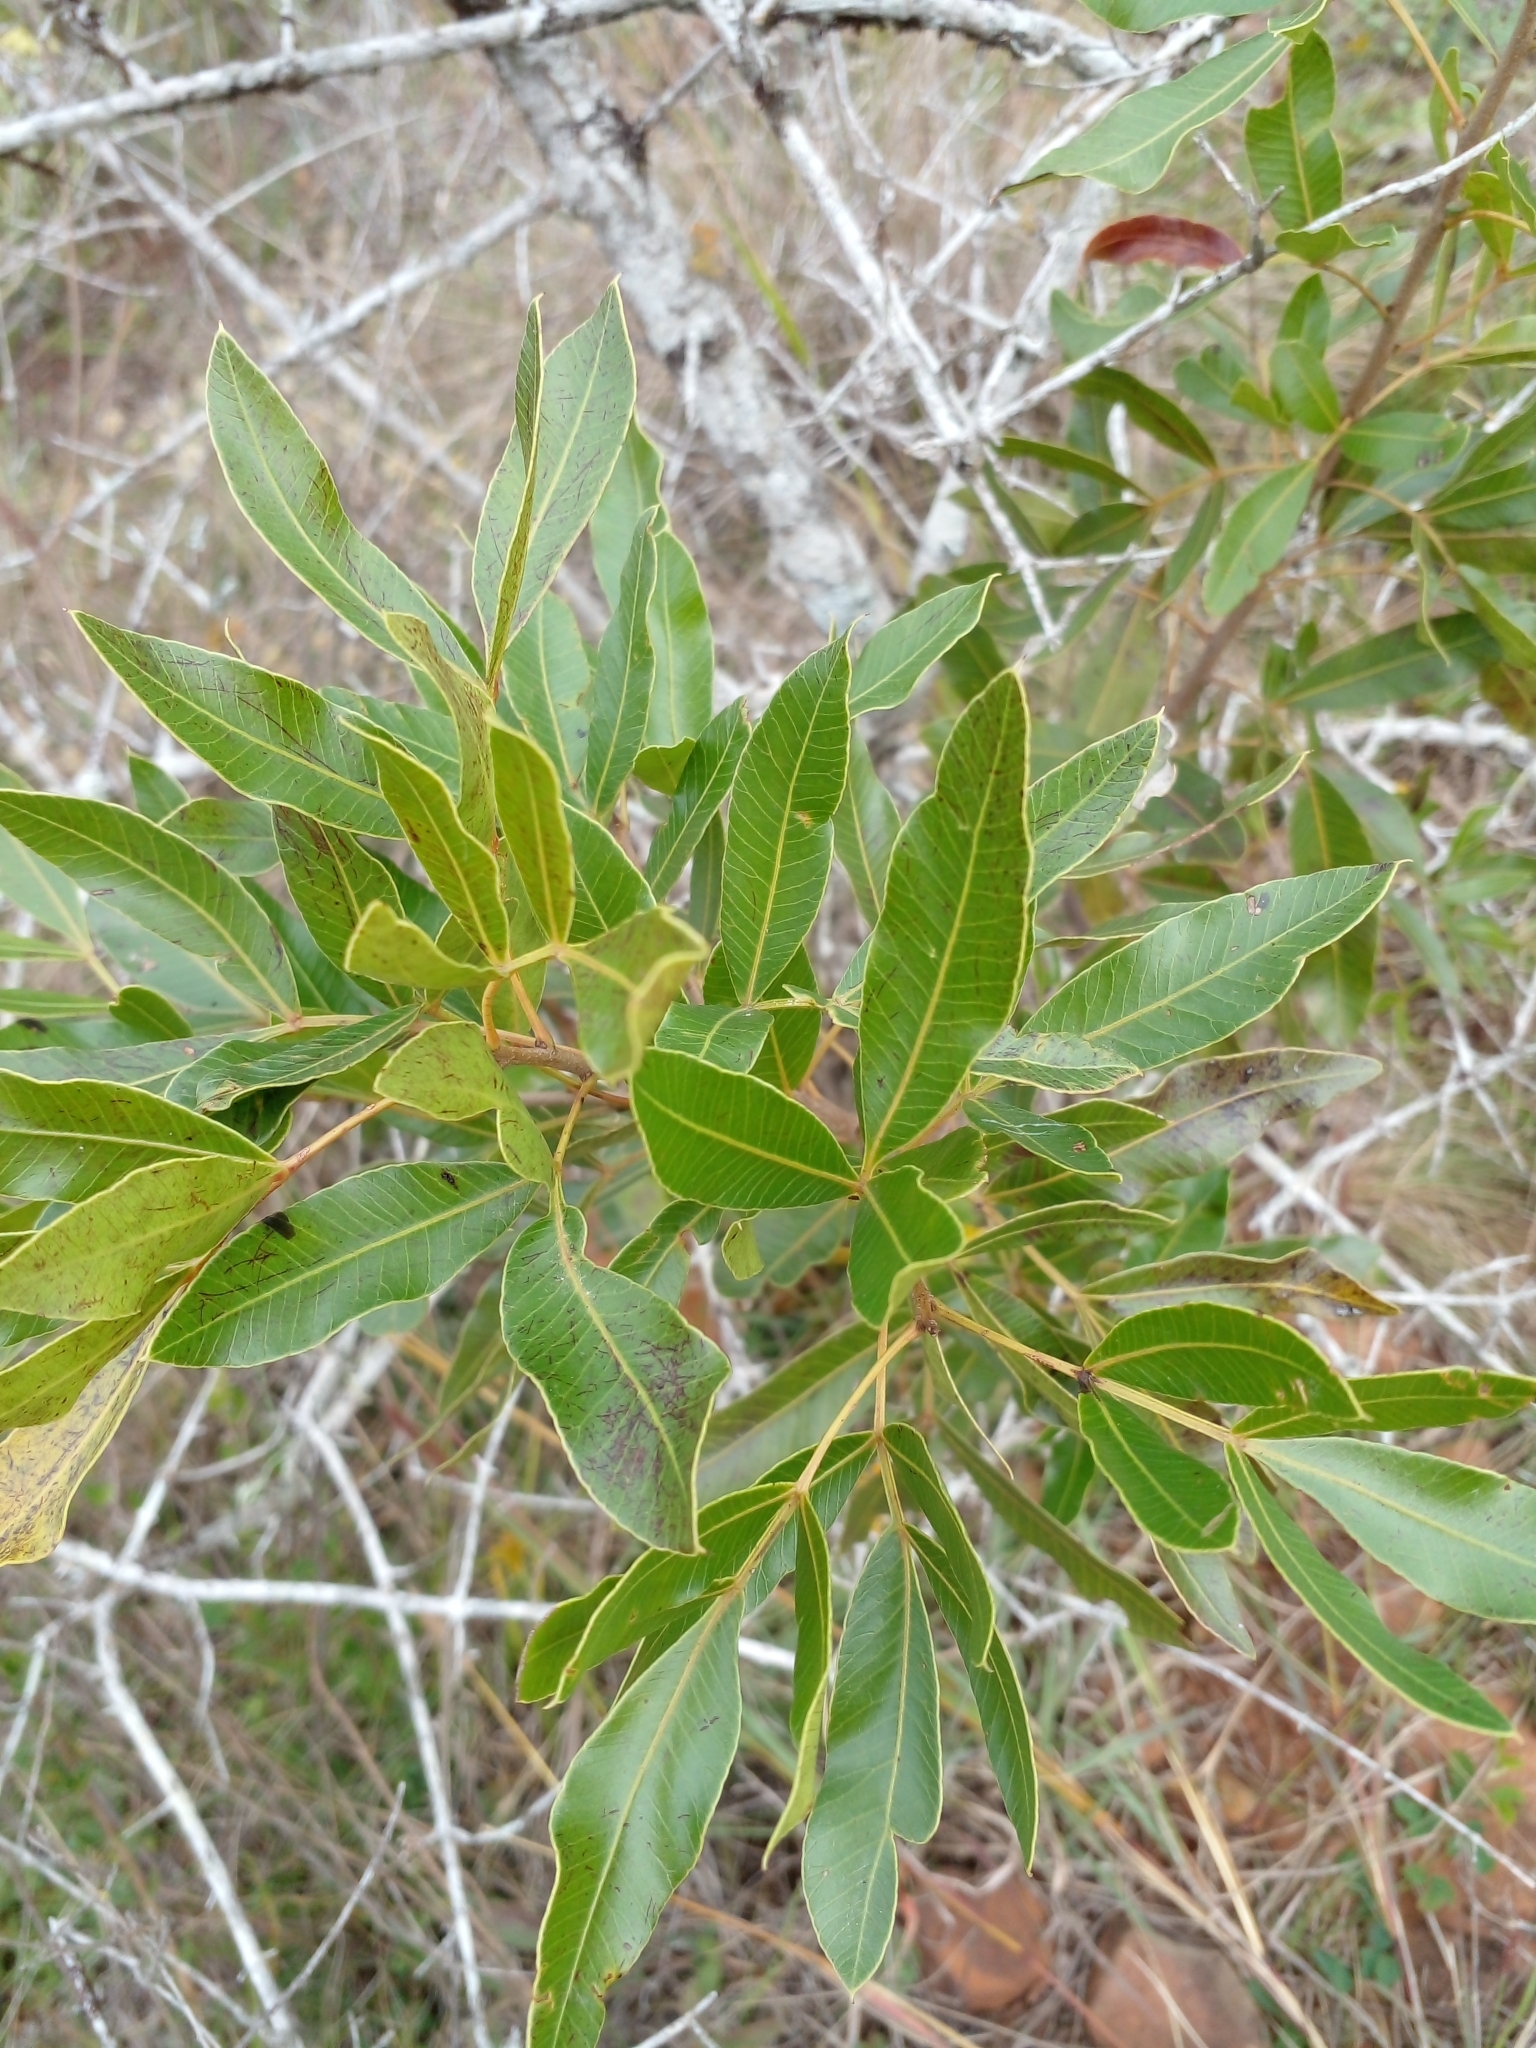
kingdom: Plantae
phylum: Tracheophyta
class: Magnoliopsida
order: Sapindales
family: Anacardiaceae
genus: Lithraea
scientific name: Lithraea molleoides
